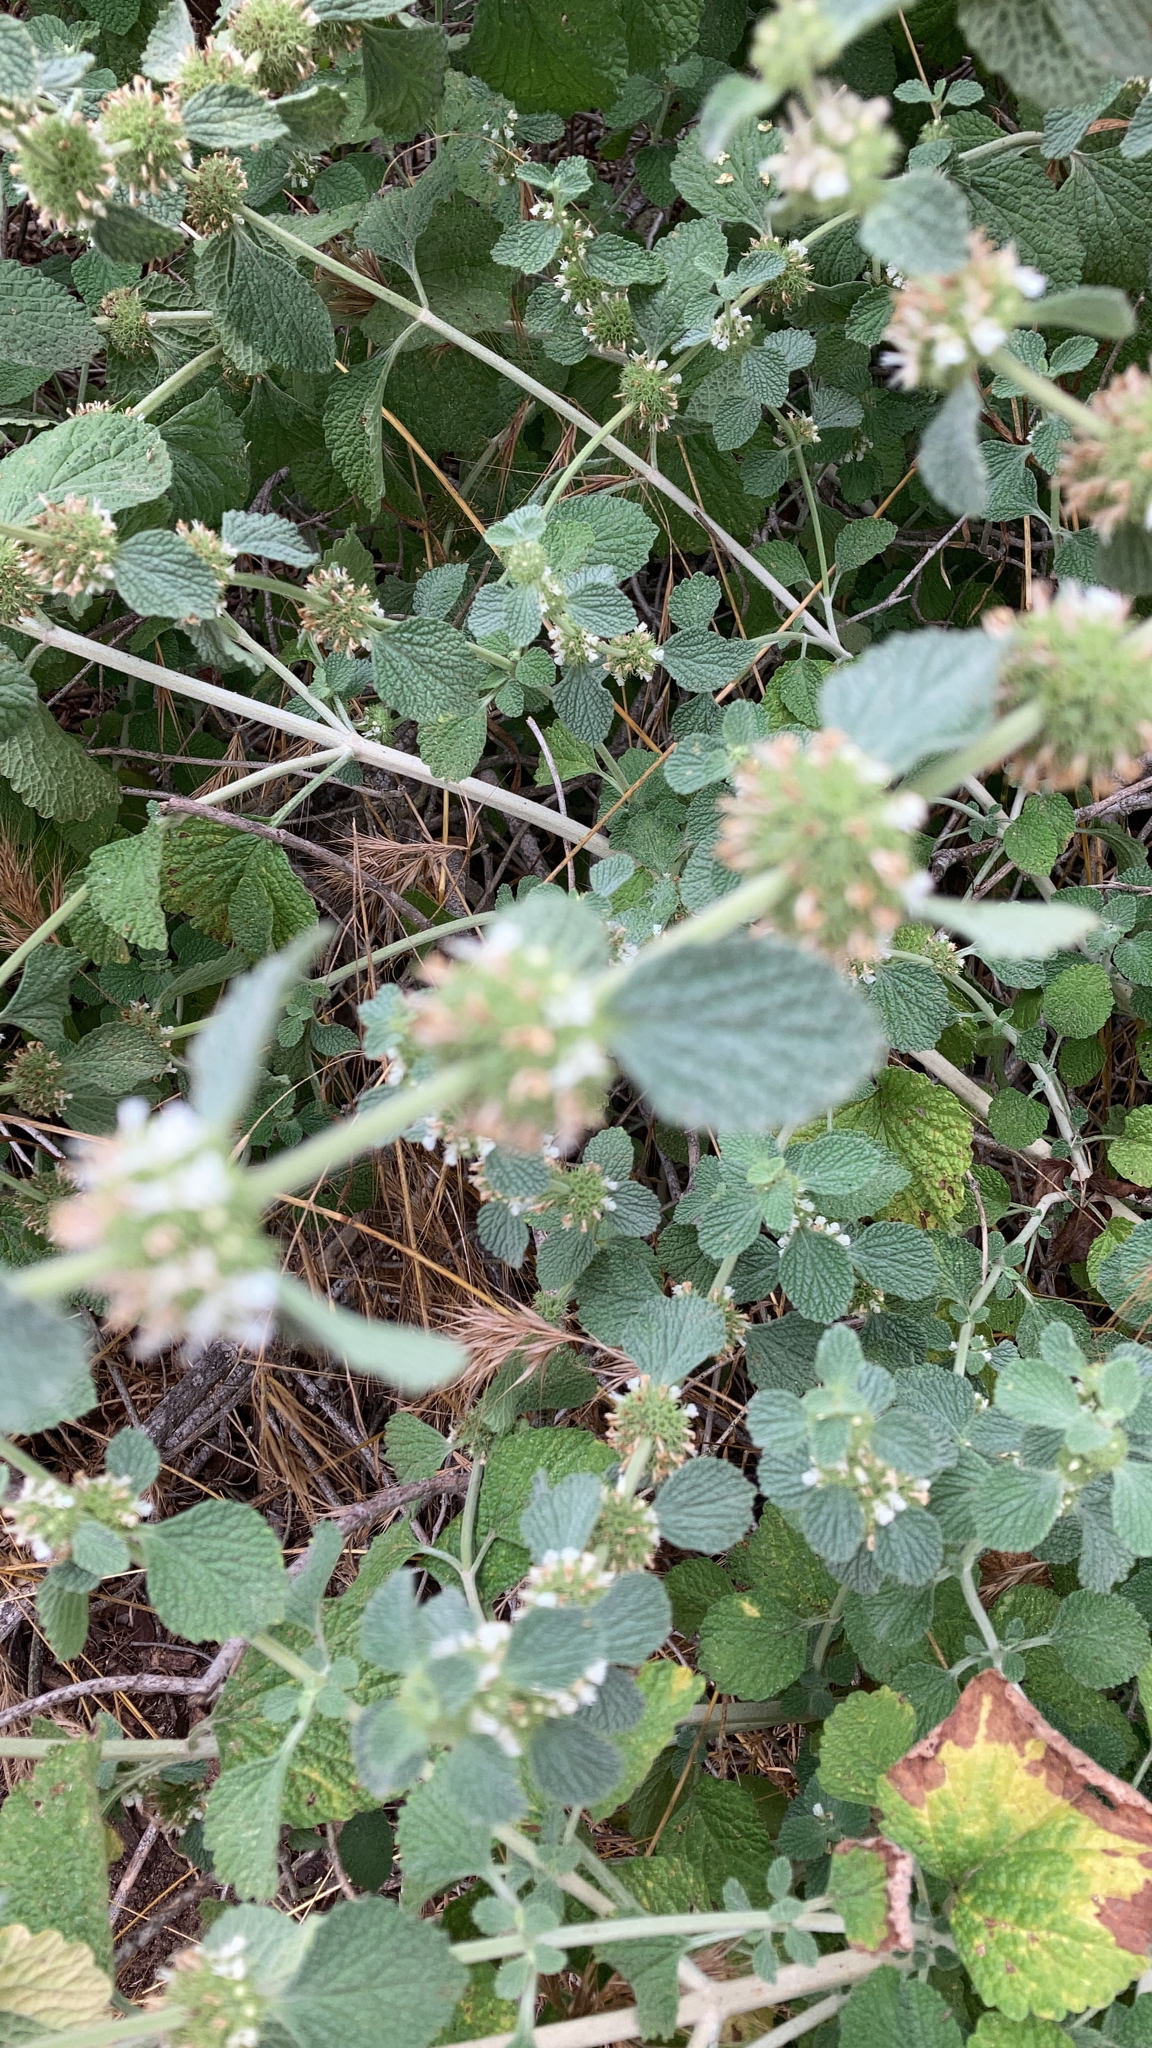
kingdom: Plantae
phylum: Tracheophyta
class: Magnoliopsida
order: Lamiales
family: Lamiaceae
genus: Marrubium
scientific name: Marrubium vulgare
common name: Horehound
